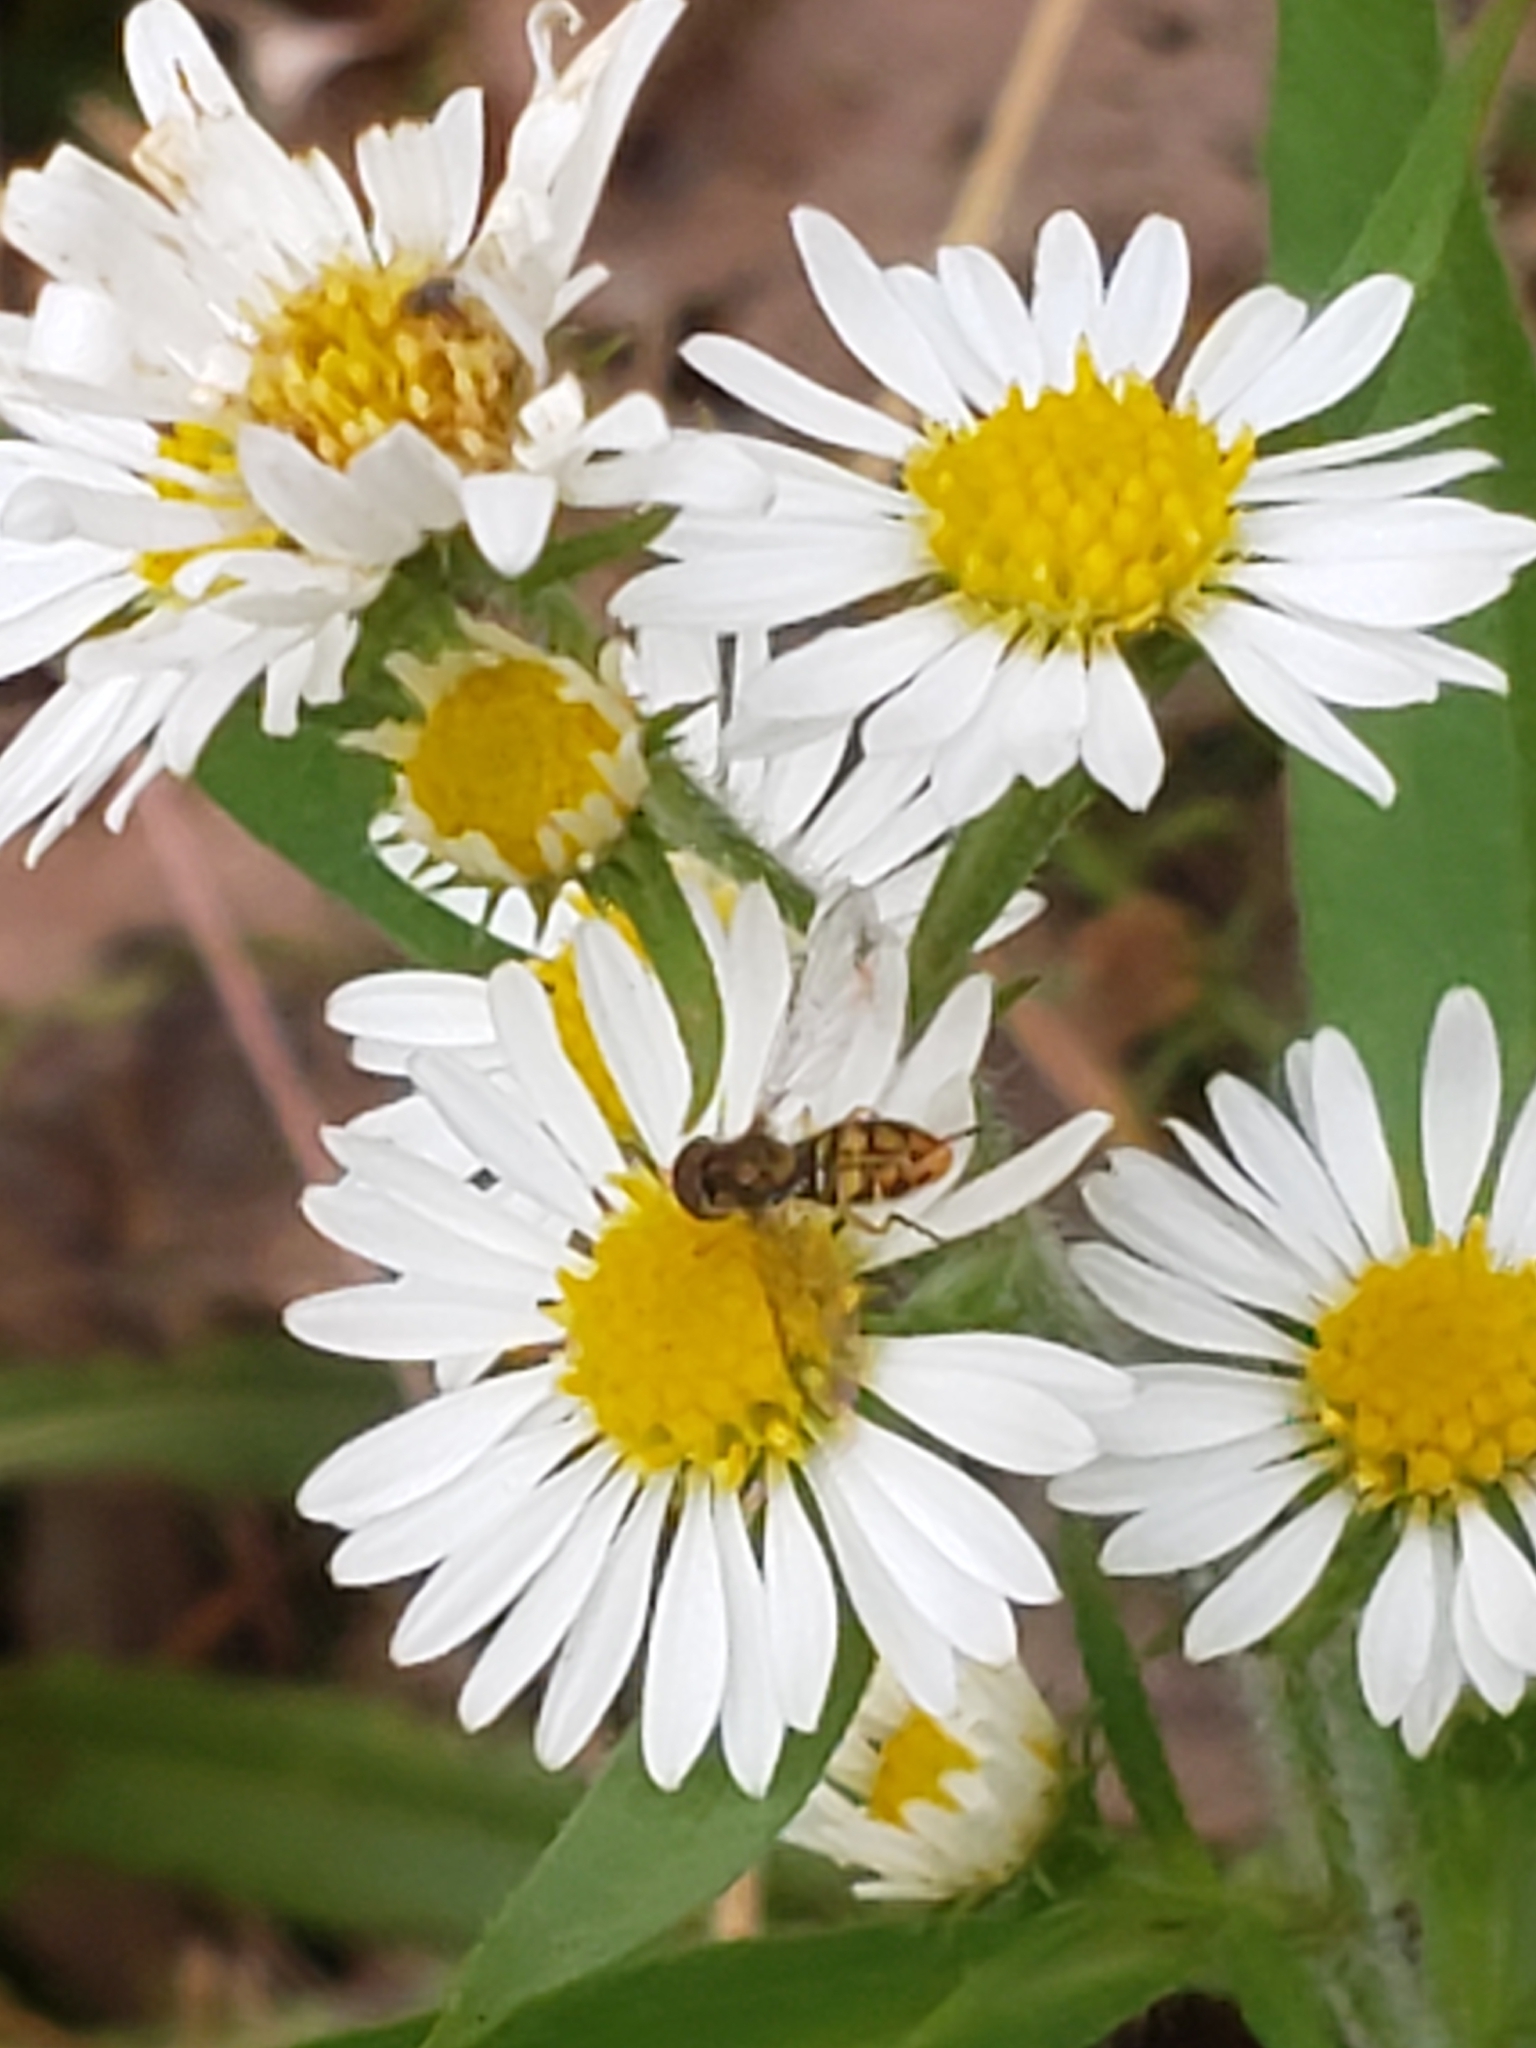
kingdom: Animalia
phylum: Arthropoda
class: Insecta
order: Diptera
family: Syrphidae
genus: Toxomerus
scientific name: Toxomerus marginatus
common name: Syrphid fly
